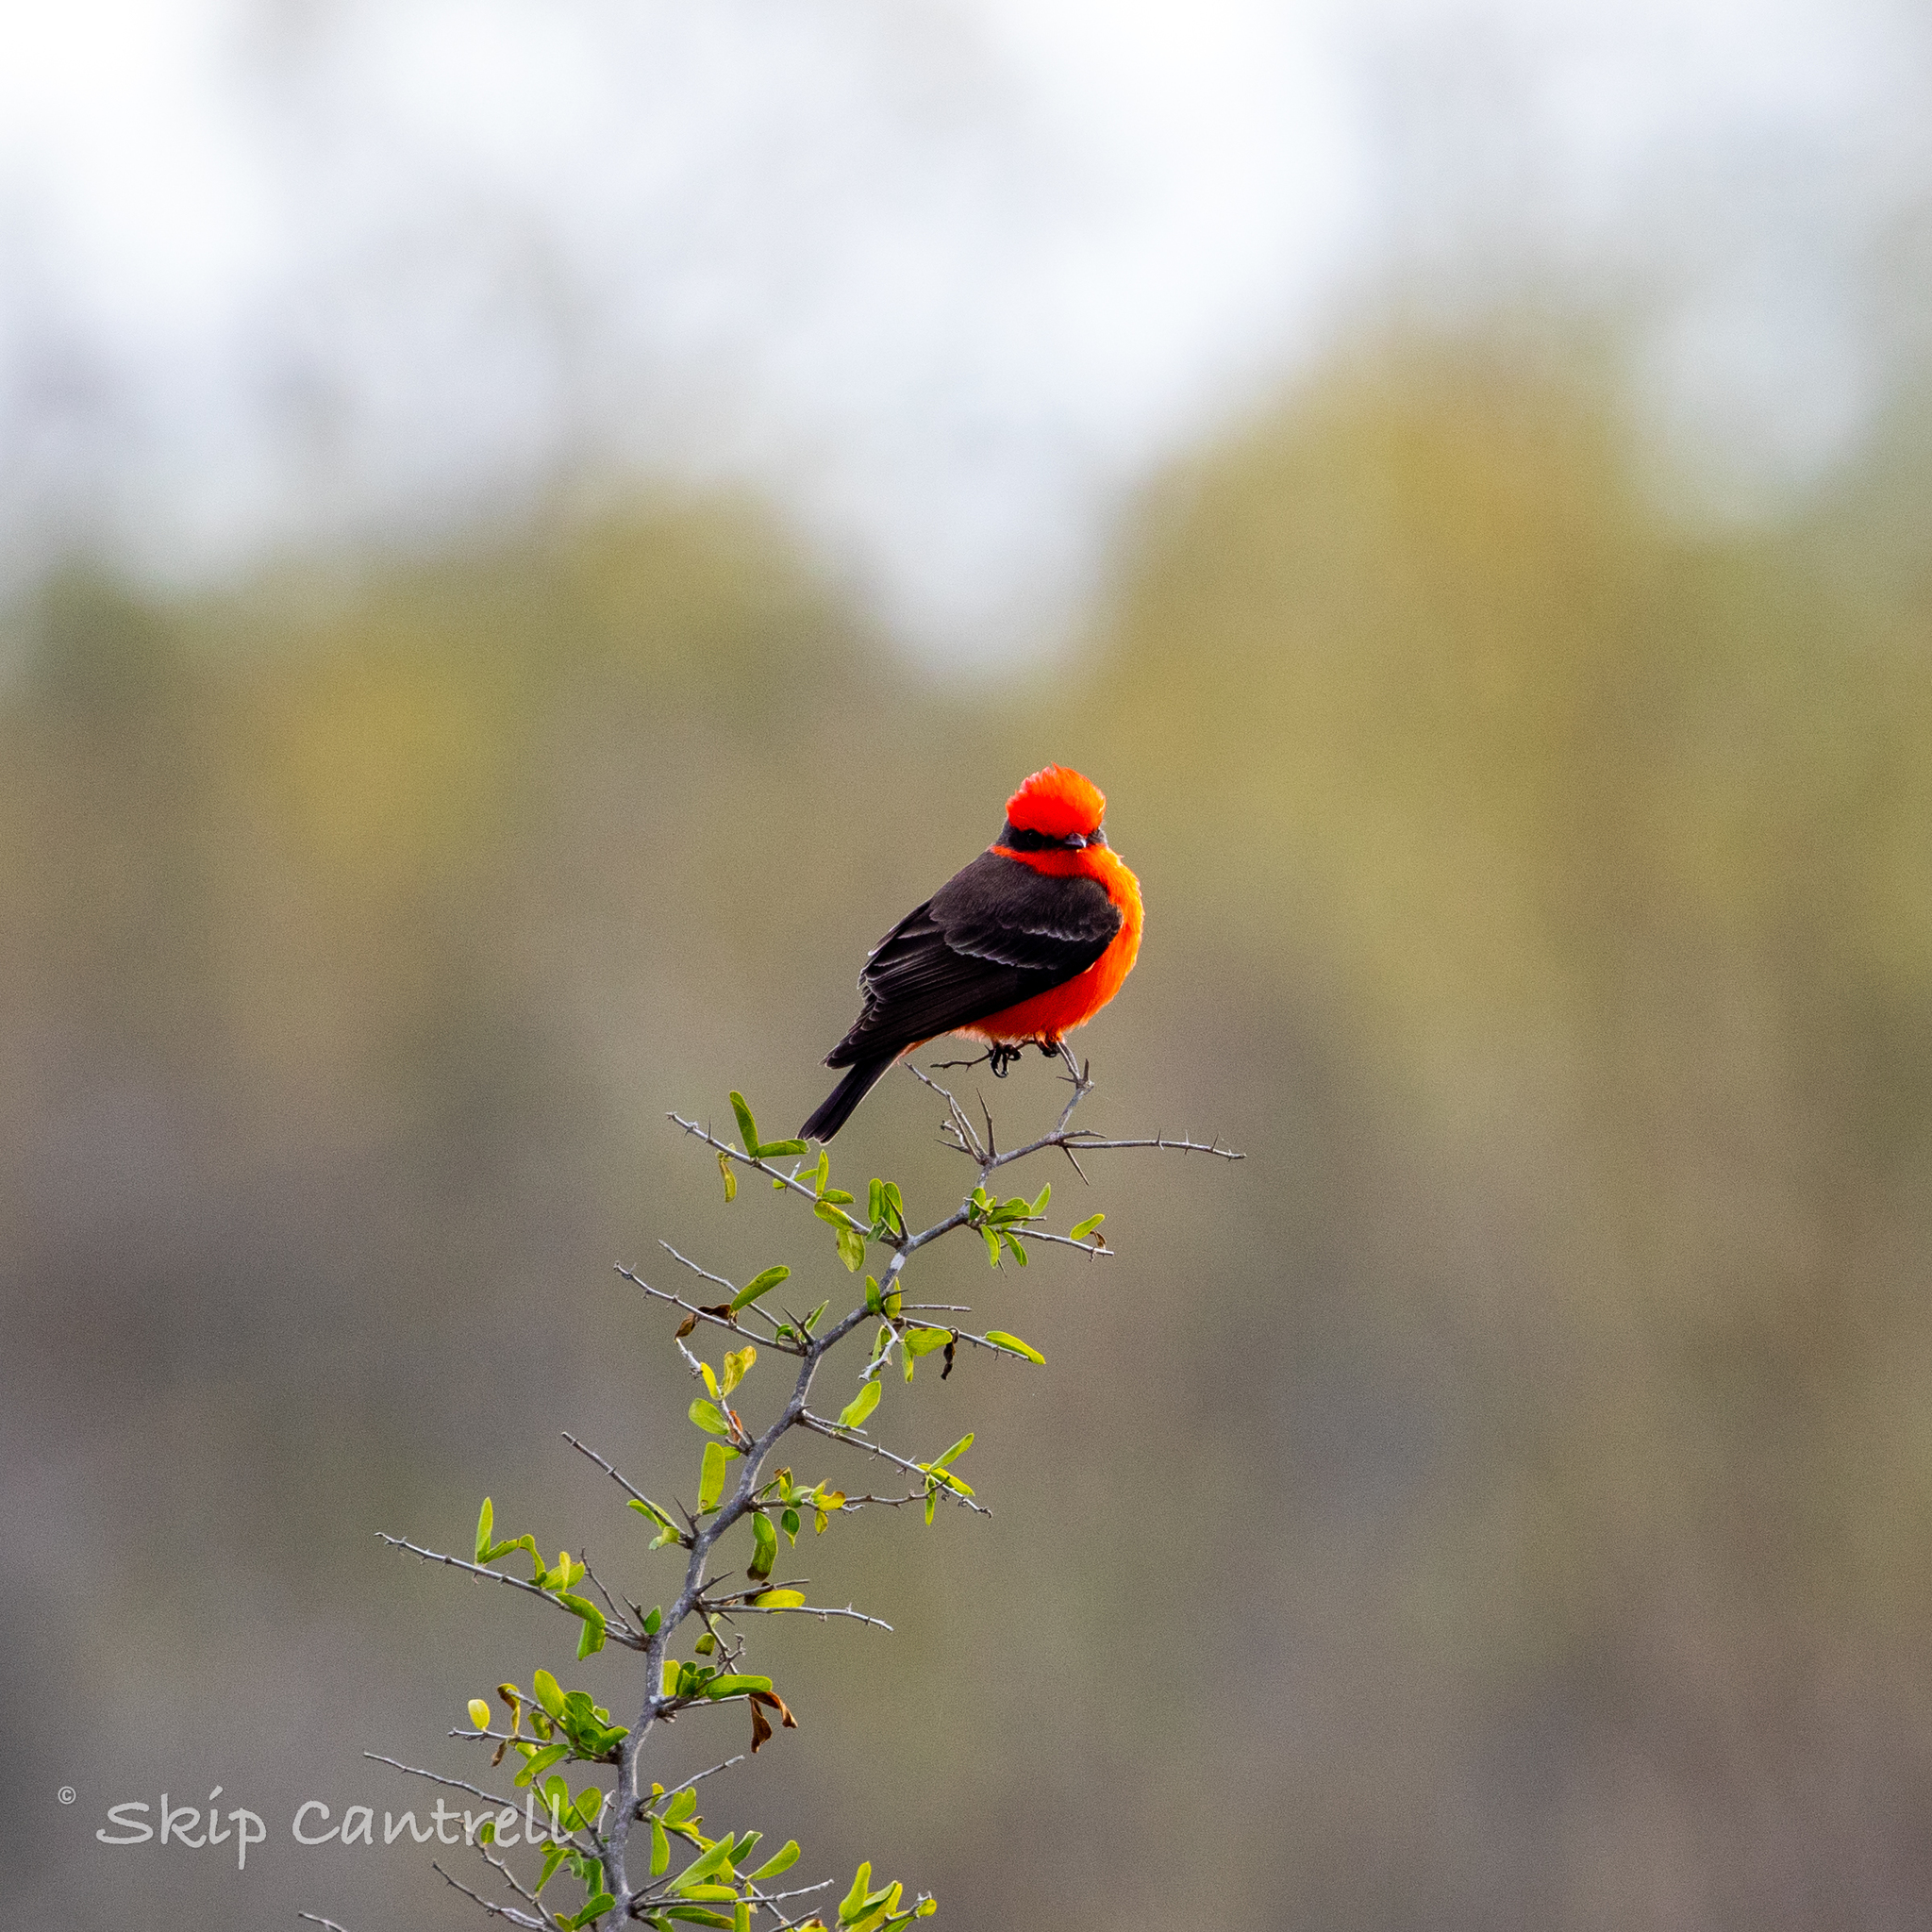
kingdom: Animalia
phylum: Chordata
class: Aves
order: Passeriformes
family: Tyrannidae
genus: Pyrocephalus
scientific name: Pyrocephalus rubinus
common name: Vermilion flycatcher
